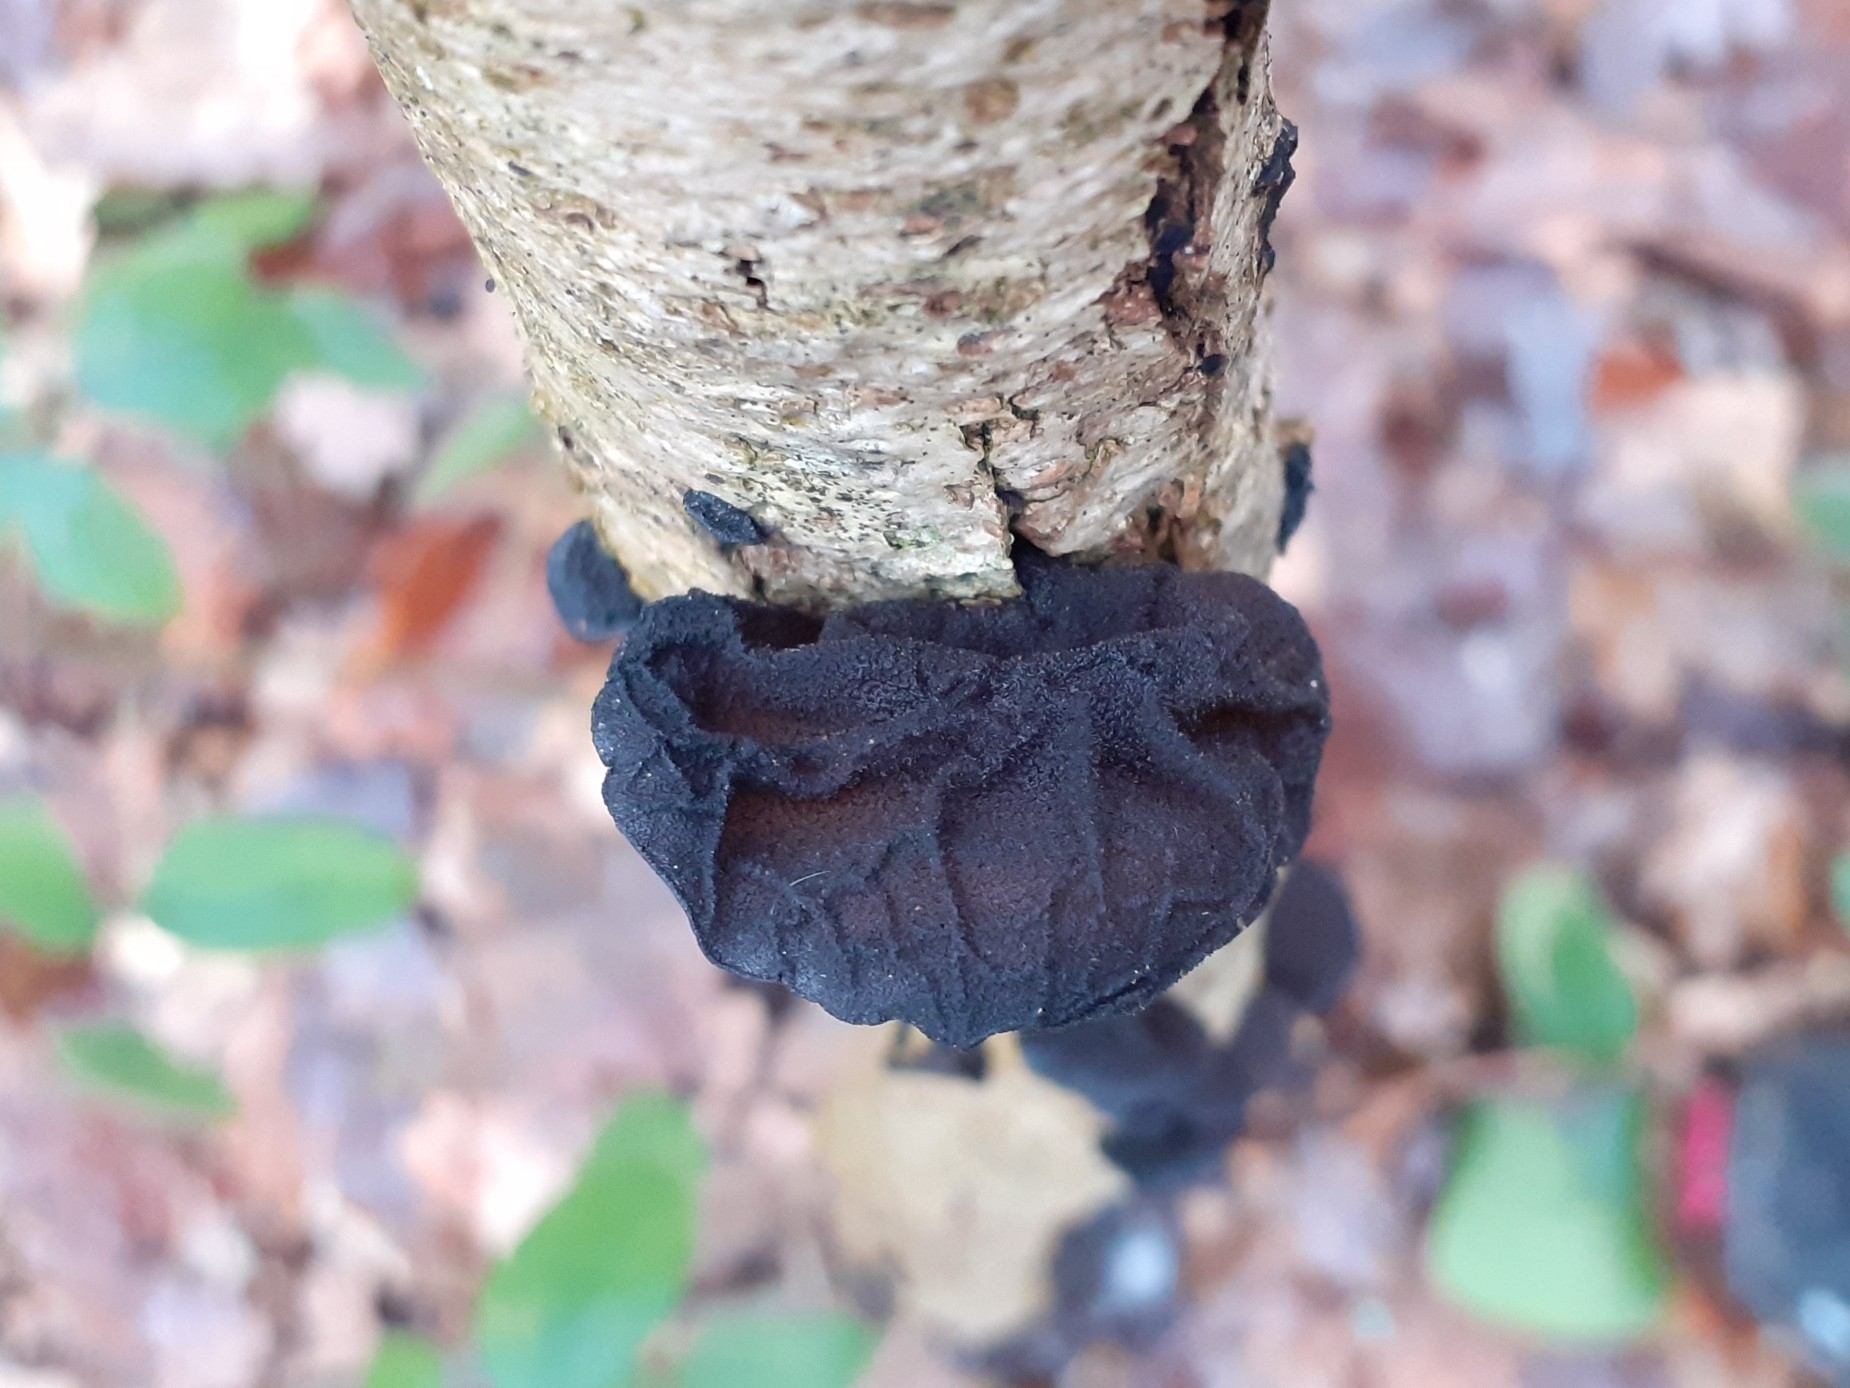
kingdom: Fungi
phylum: Basidiomycota
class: Agaricomycetes
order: Auriculariales
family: Auriculariaceae
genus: Exidia
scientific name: Exidia glandulosa
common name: Witches' butter
